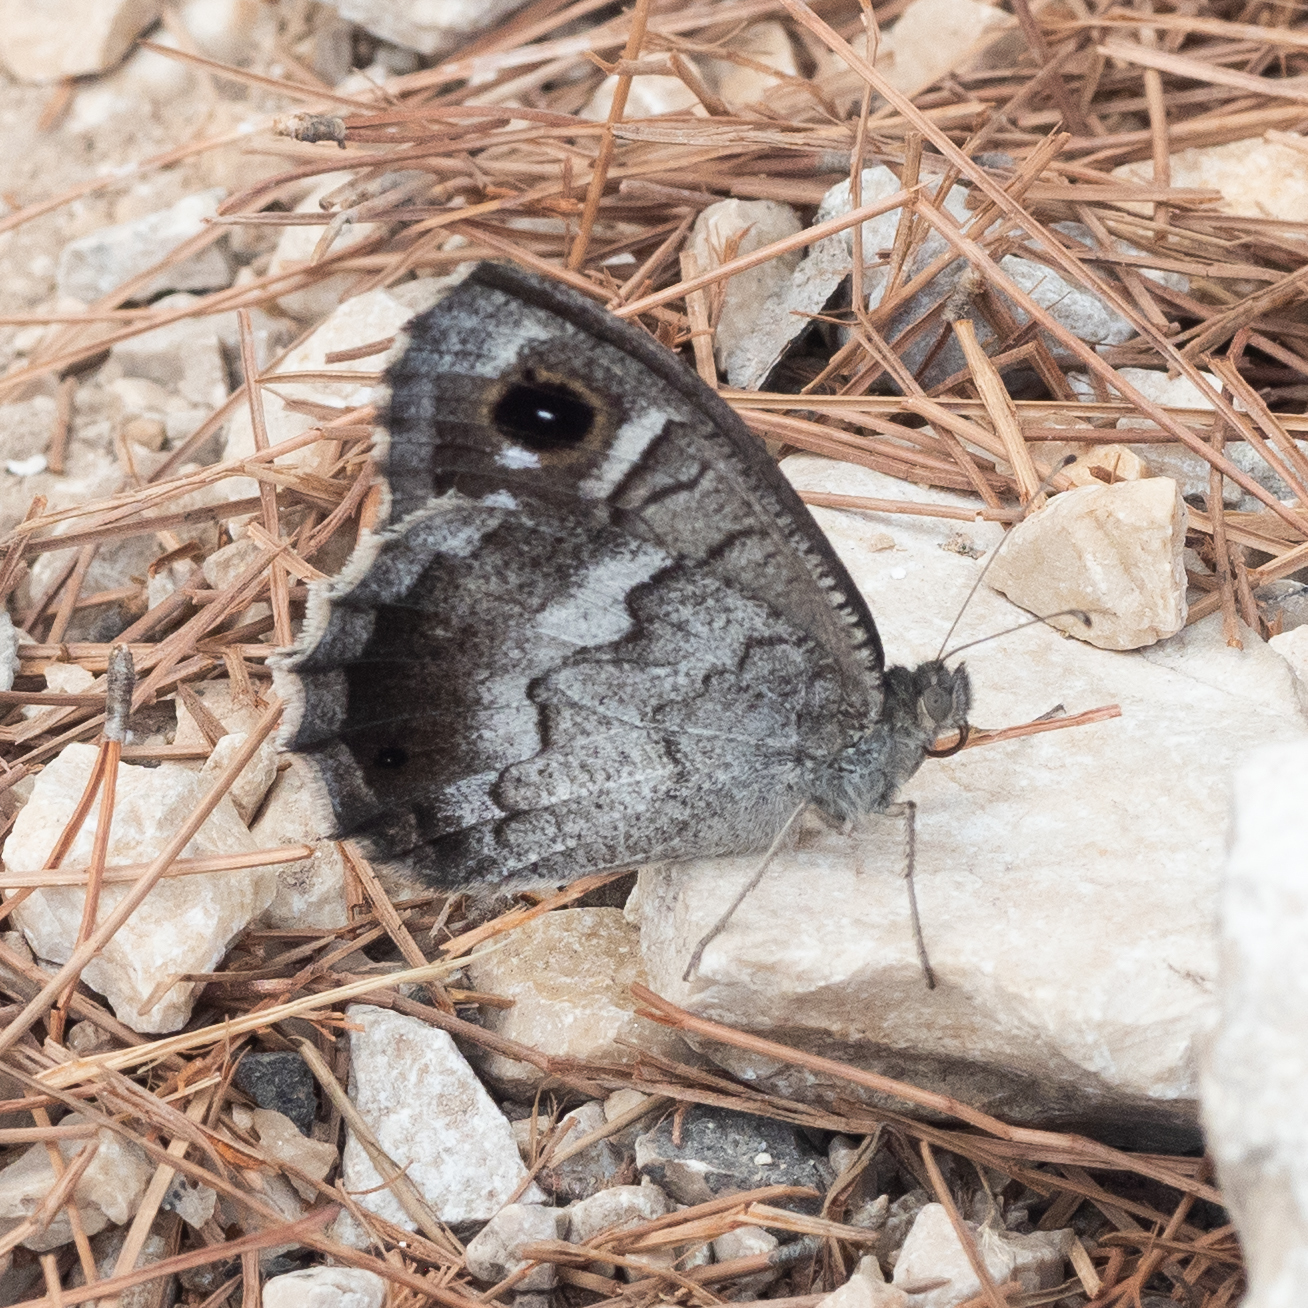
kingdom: Animalia
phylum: Arthropoda
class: Insecta
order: Lepidoptera
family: Nymphalidae
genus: Hipparchia
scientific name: Hipparchia statilinus
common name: Tree grayling
